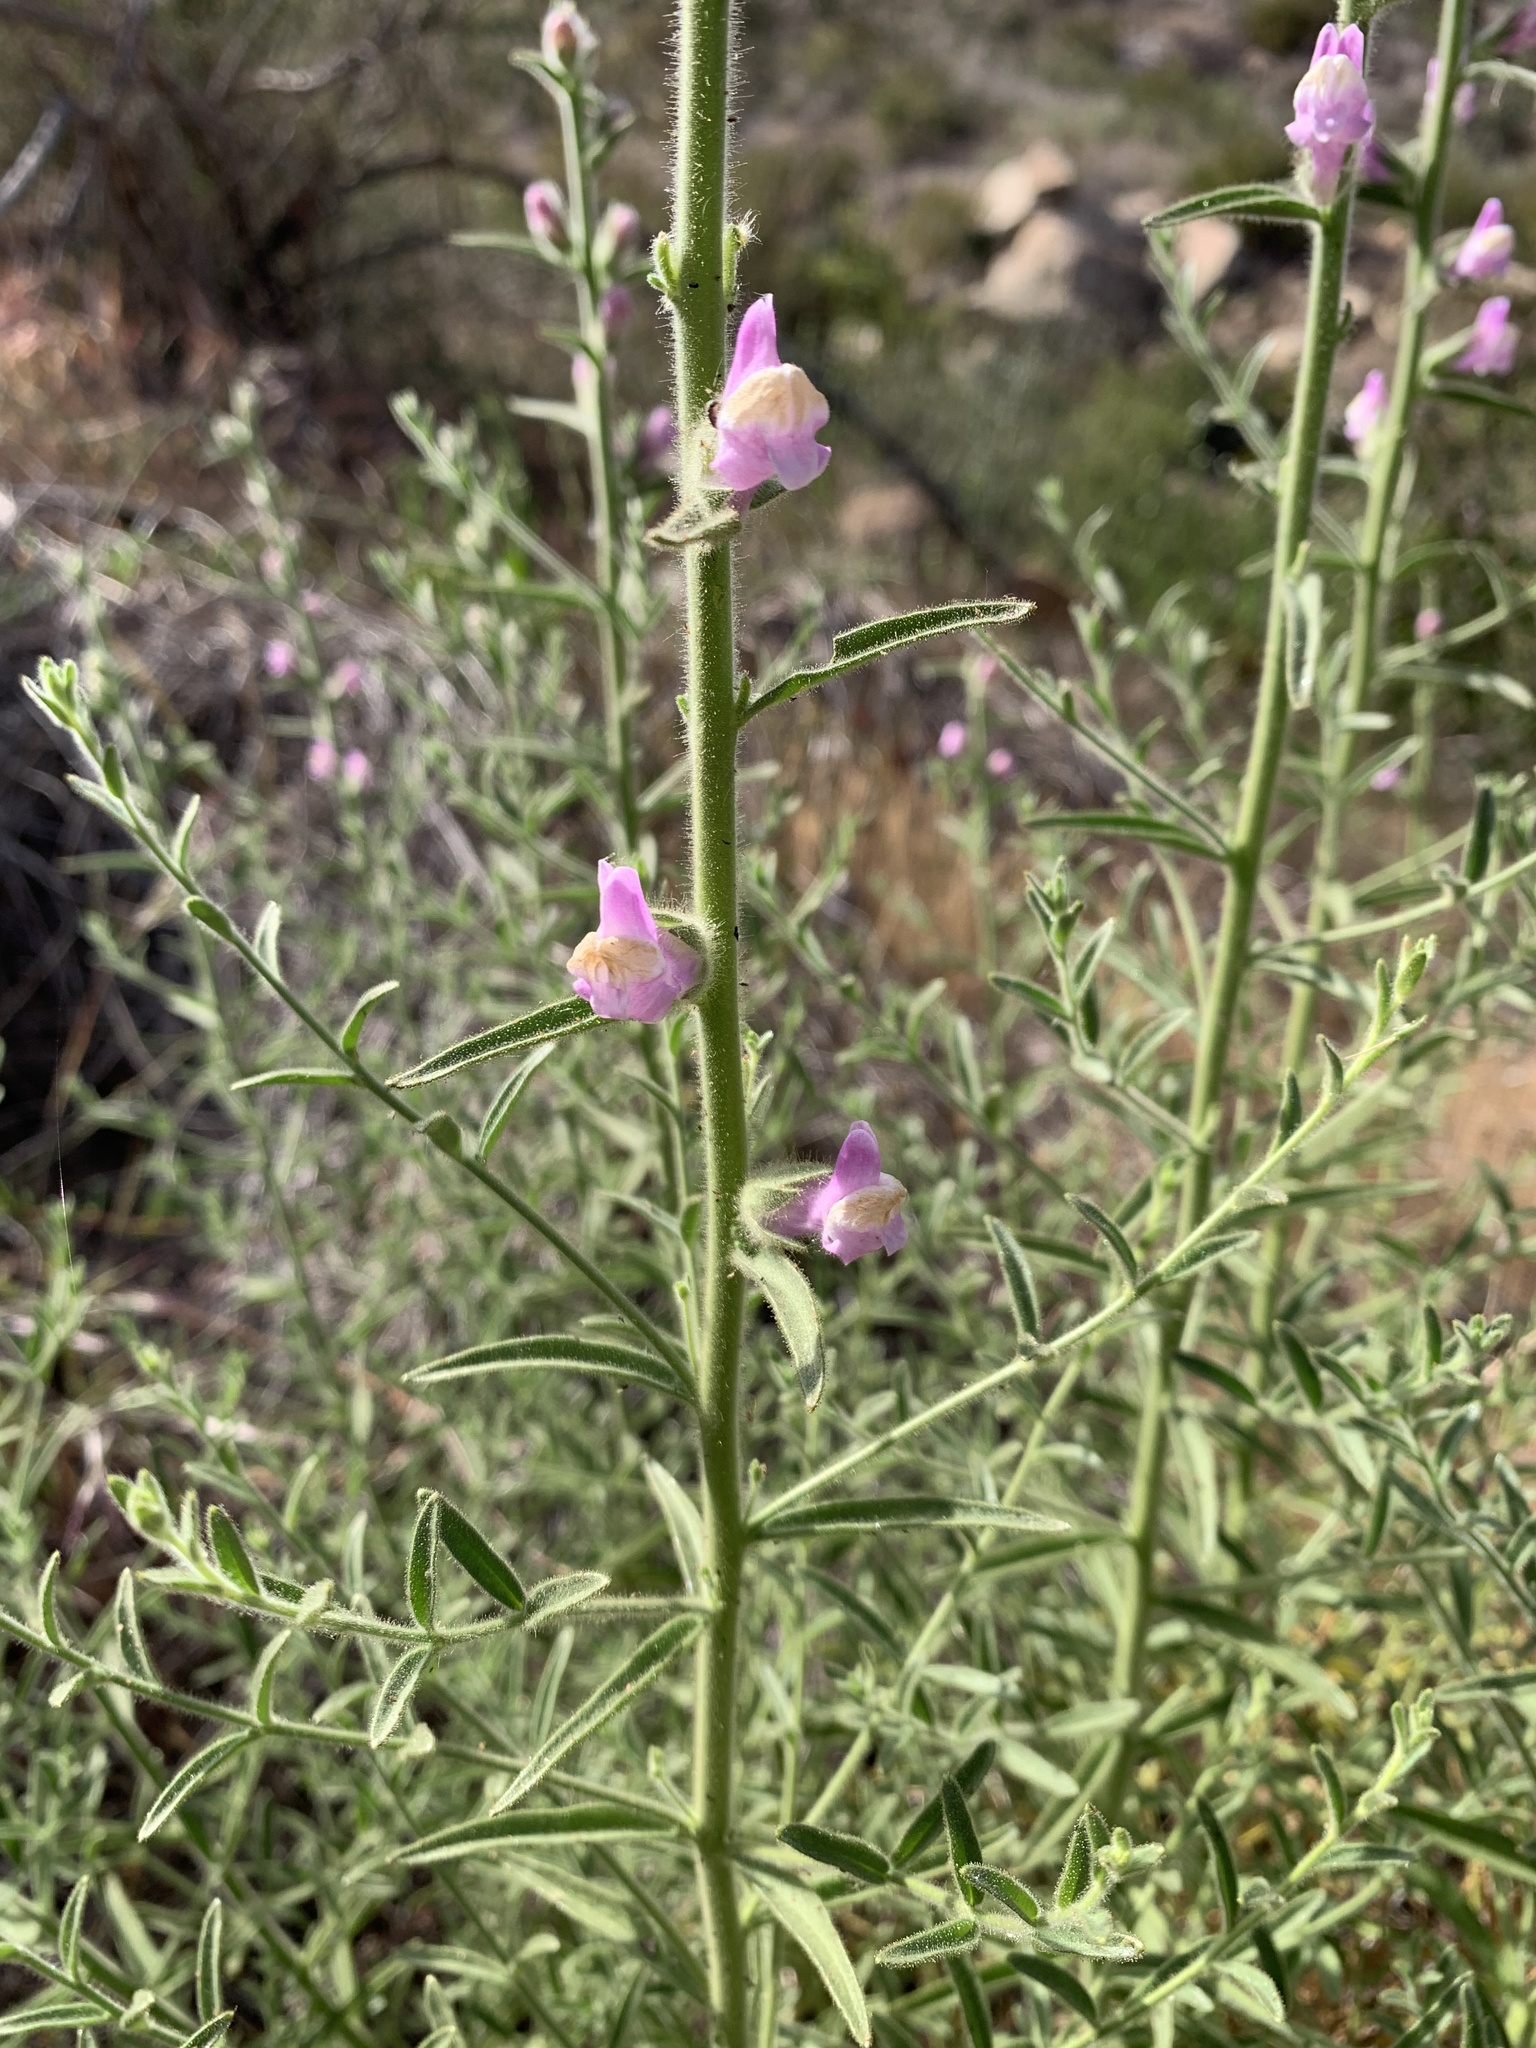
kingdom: Plantae
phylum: Tracheophyta
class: Magnoliopsida
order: Lamiales
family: Plantaginaceae
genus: Sairocarpus
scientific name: Sairocarpus multiflorus
